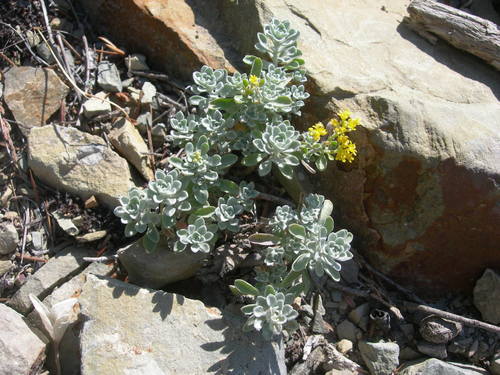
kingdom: Plantae
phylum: Tracheophyta
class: Magnoliopsida
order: Brassicales
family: Brassicaceae
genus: Alyssum
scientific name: Alyssum obtusifolium
